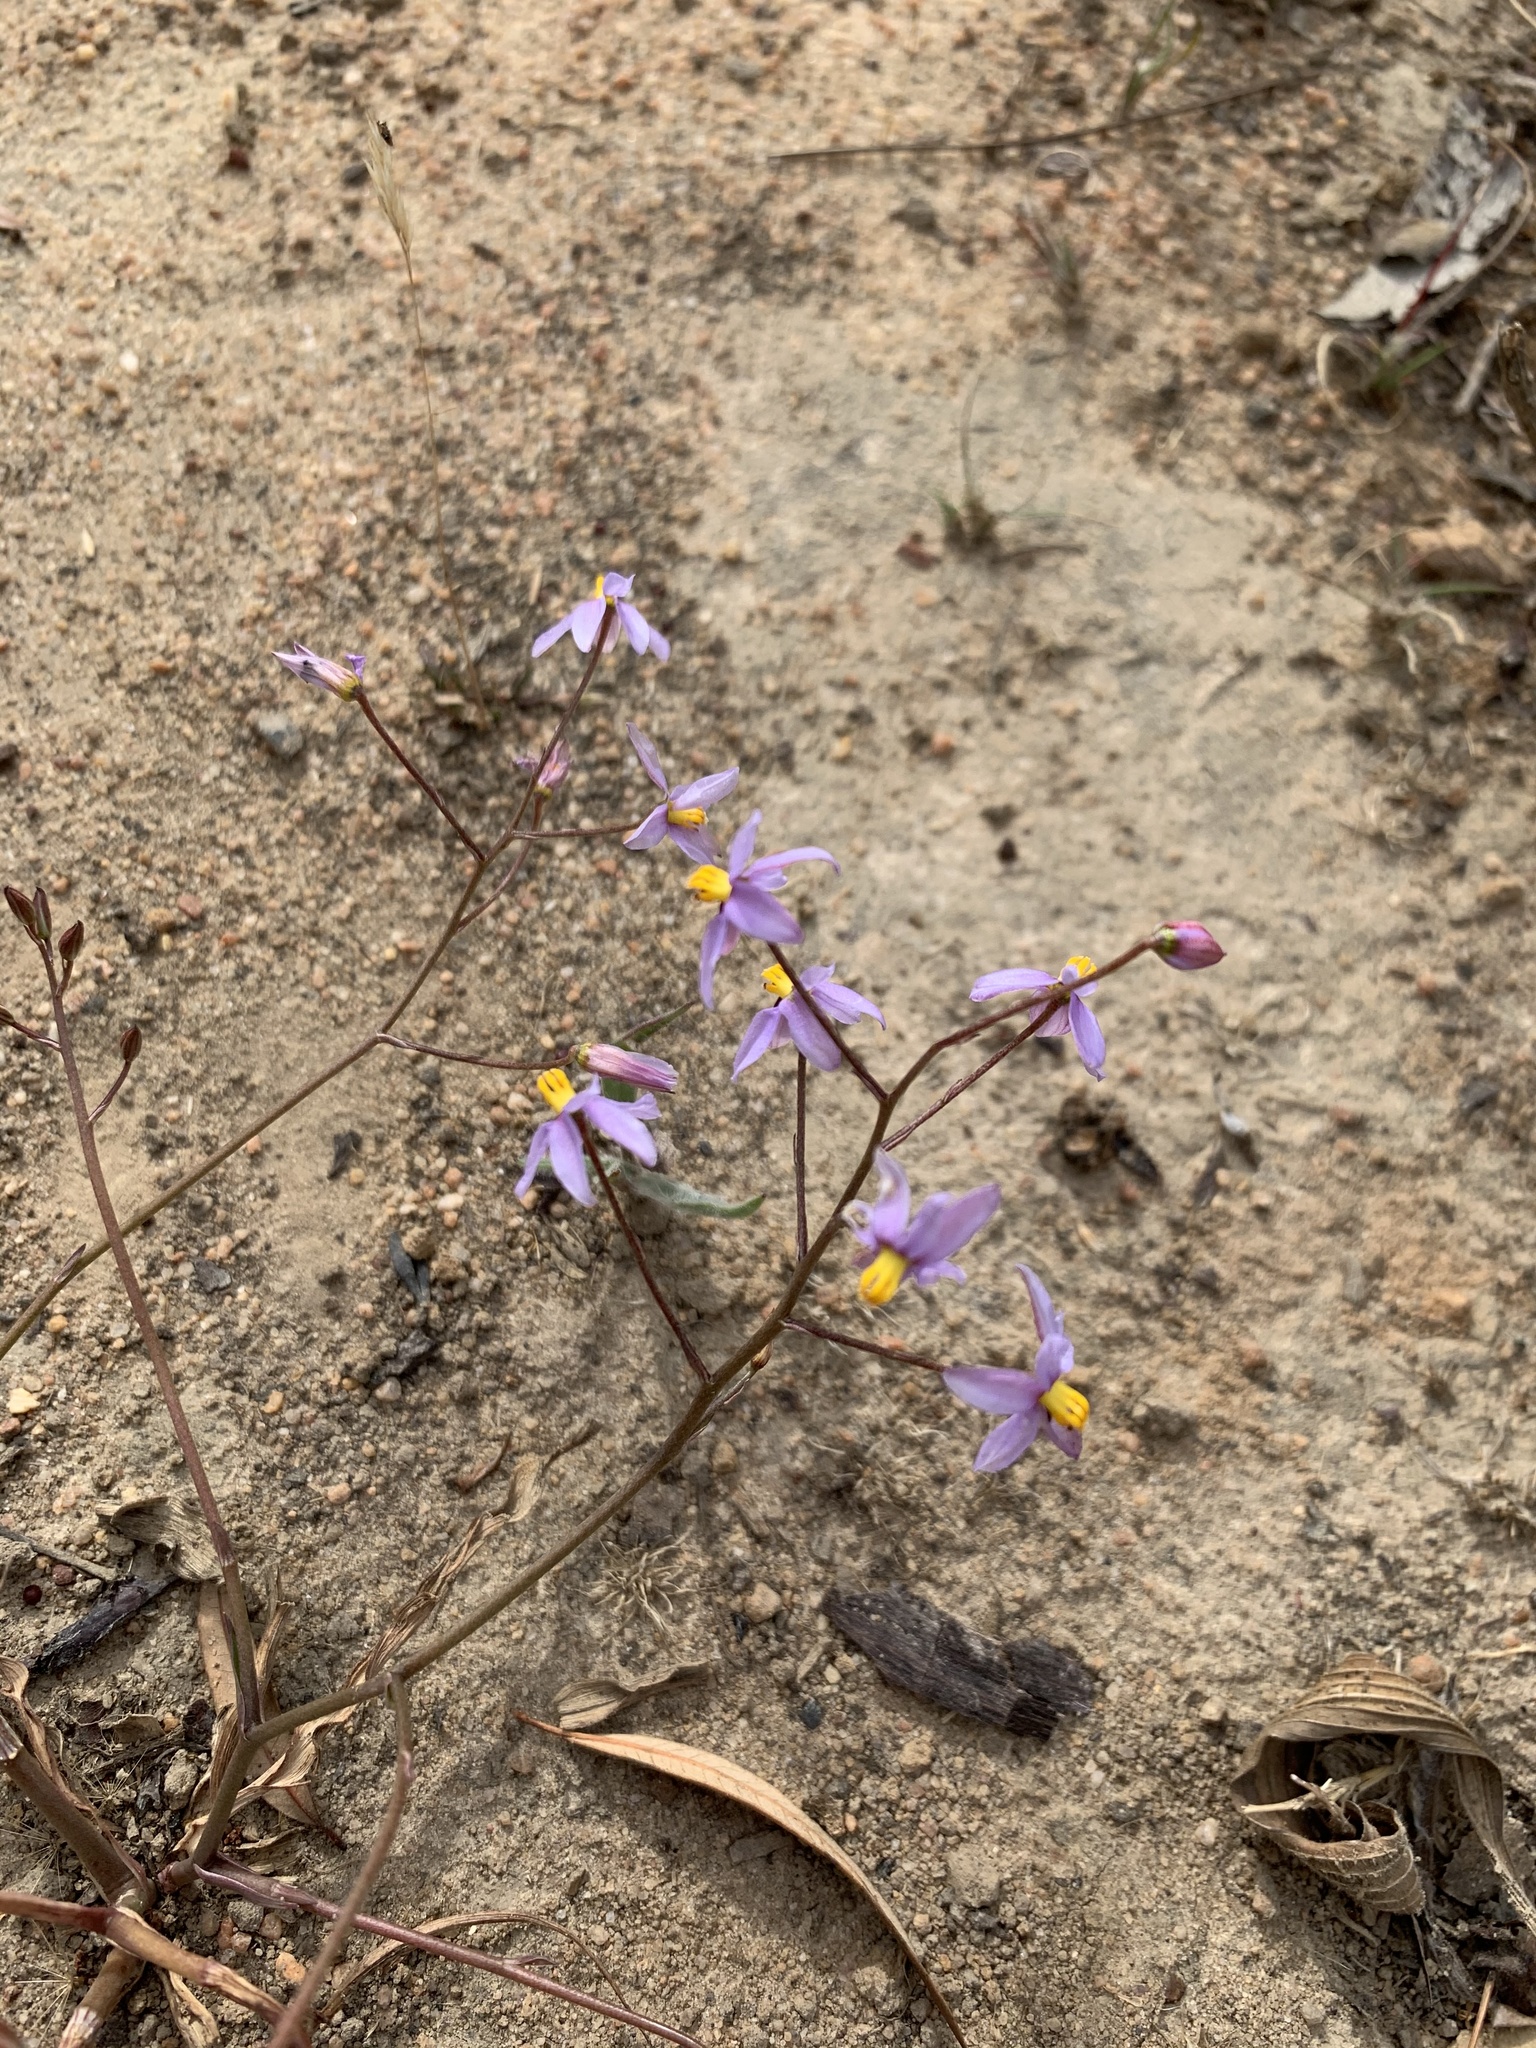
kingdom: Plantae
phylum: Tracheophyta
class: Liliopsida
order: Asparagales
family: Tecophilaeaceae
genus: Cyanella
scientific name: Cyanella hyacinthoides
